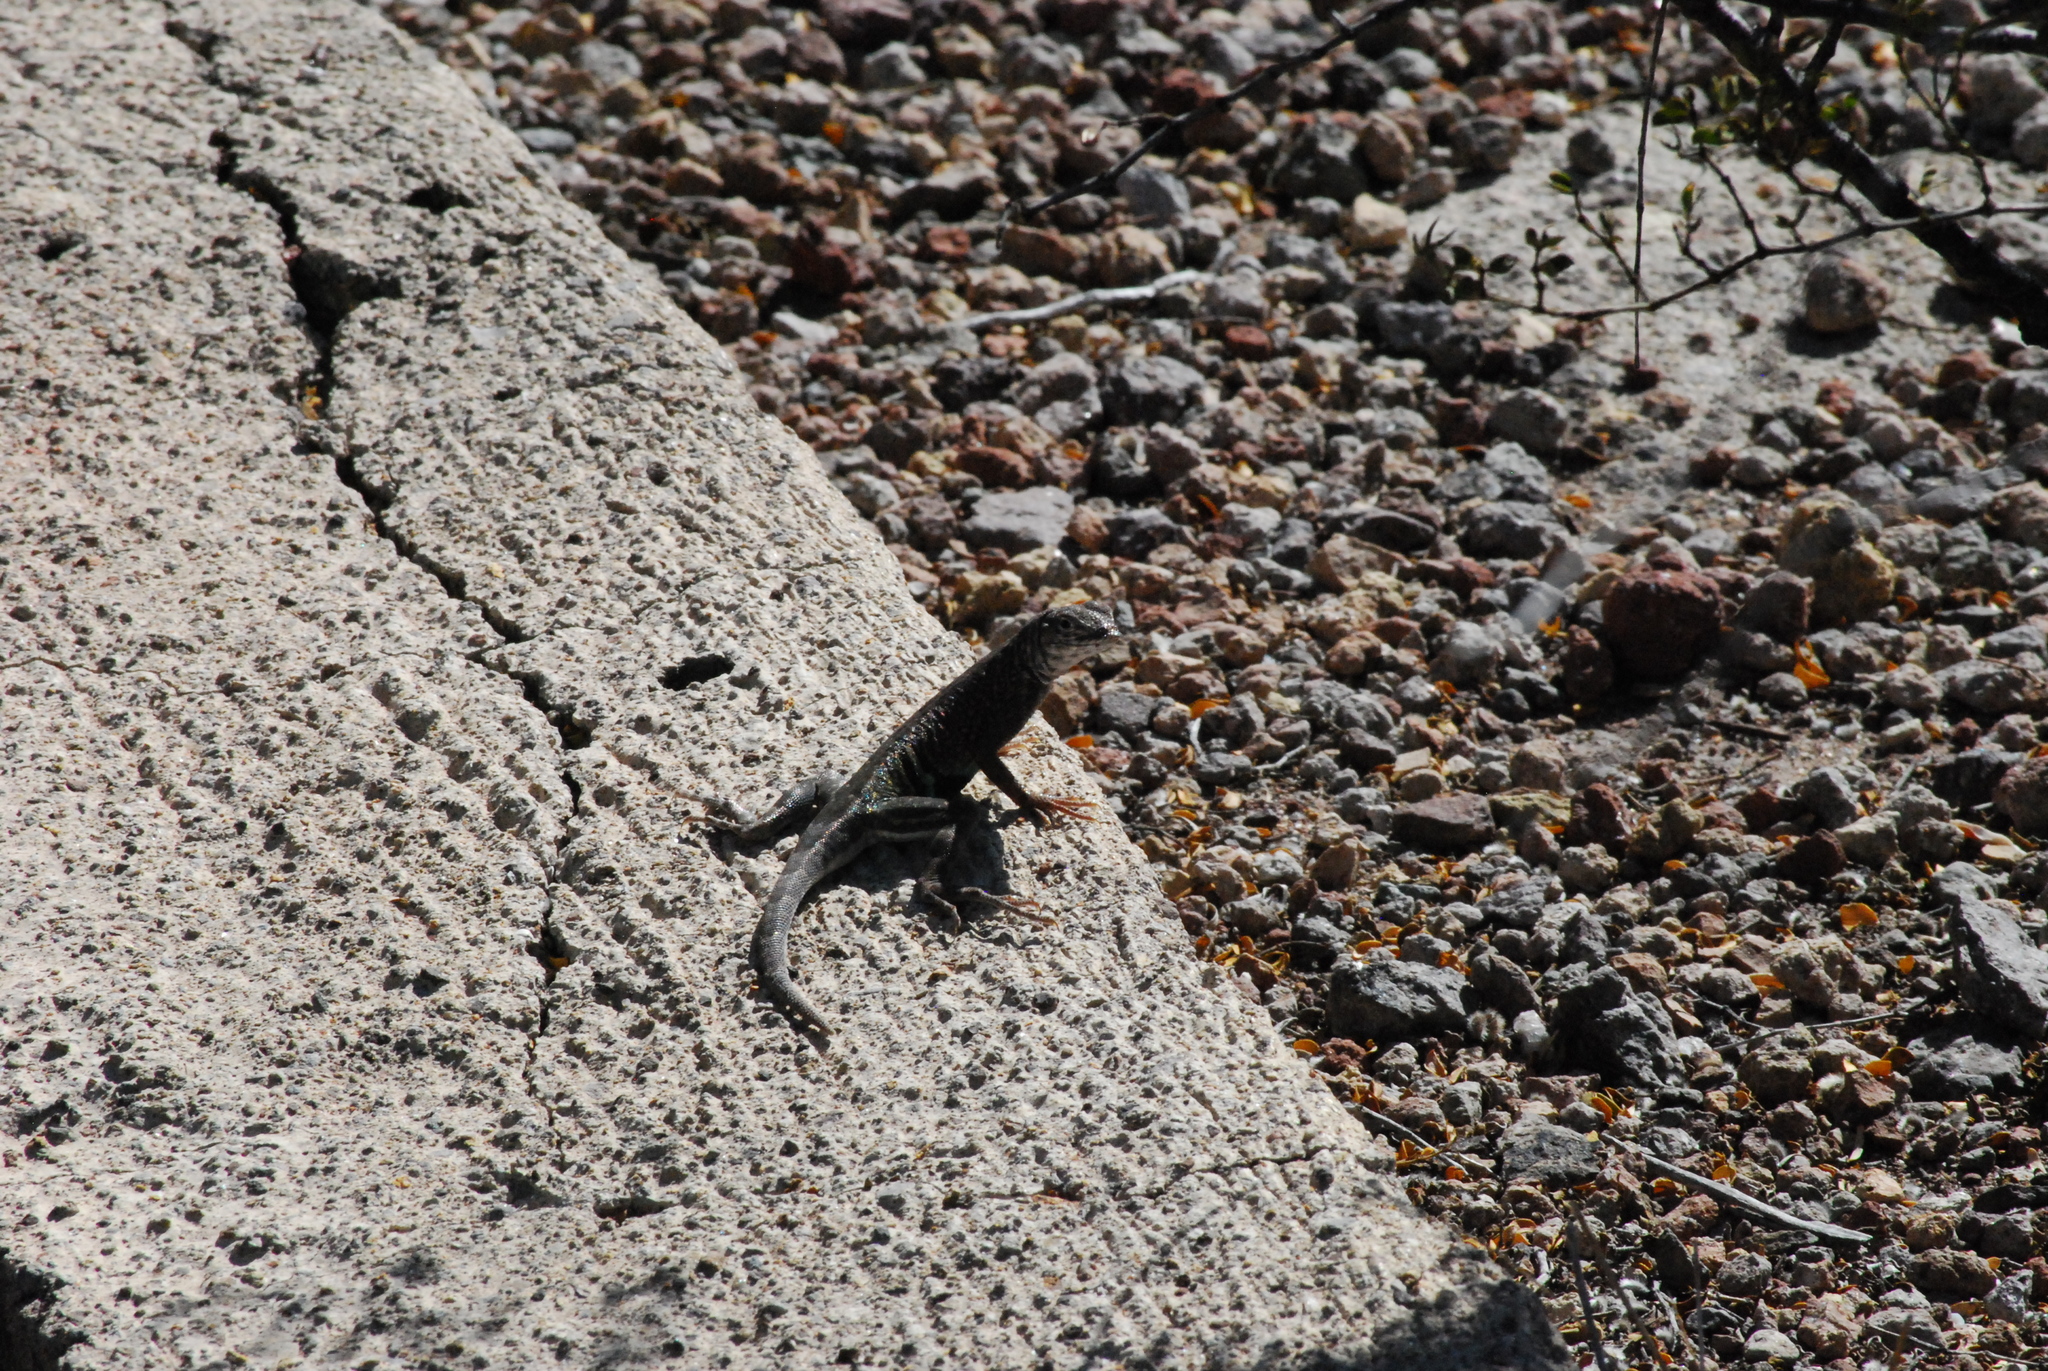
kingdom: Animalia
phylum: Chordata
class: Squamata
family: Phrynosomatidae
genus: Cophosaurus
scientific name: Cophosaurus texanus
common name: Greater earless lizard
